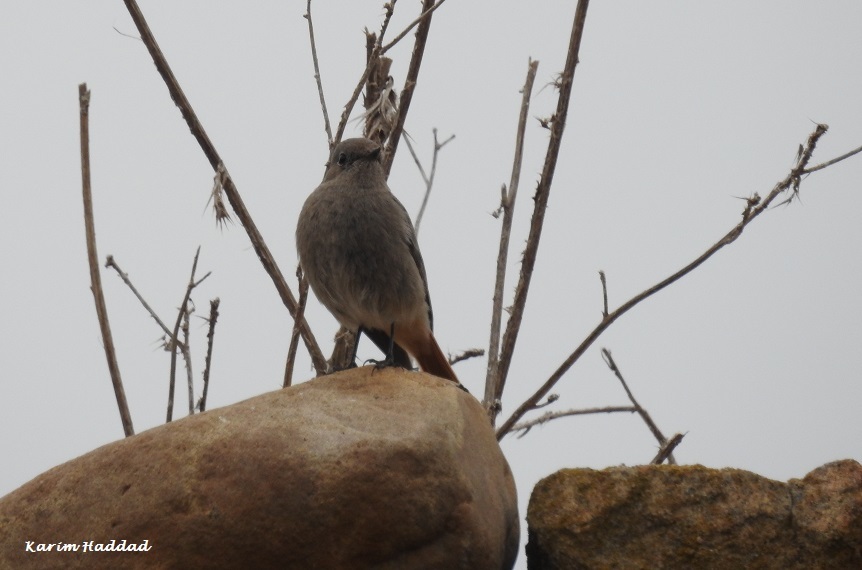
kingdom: Animalia
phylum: Chordata
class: Aves
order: Passeriformes
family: Muscicapidae
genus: Phoenicurus
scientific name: Phoenicurus ochruros
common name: Black redstart
